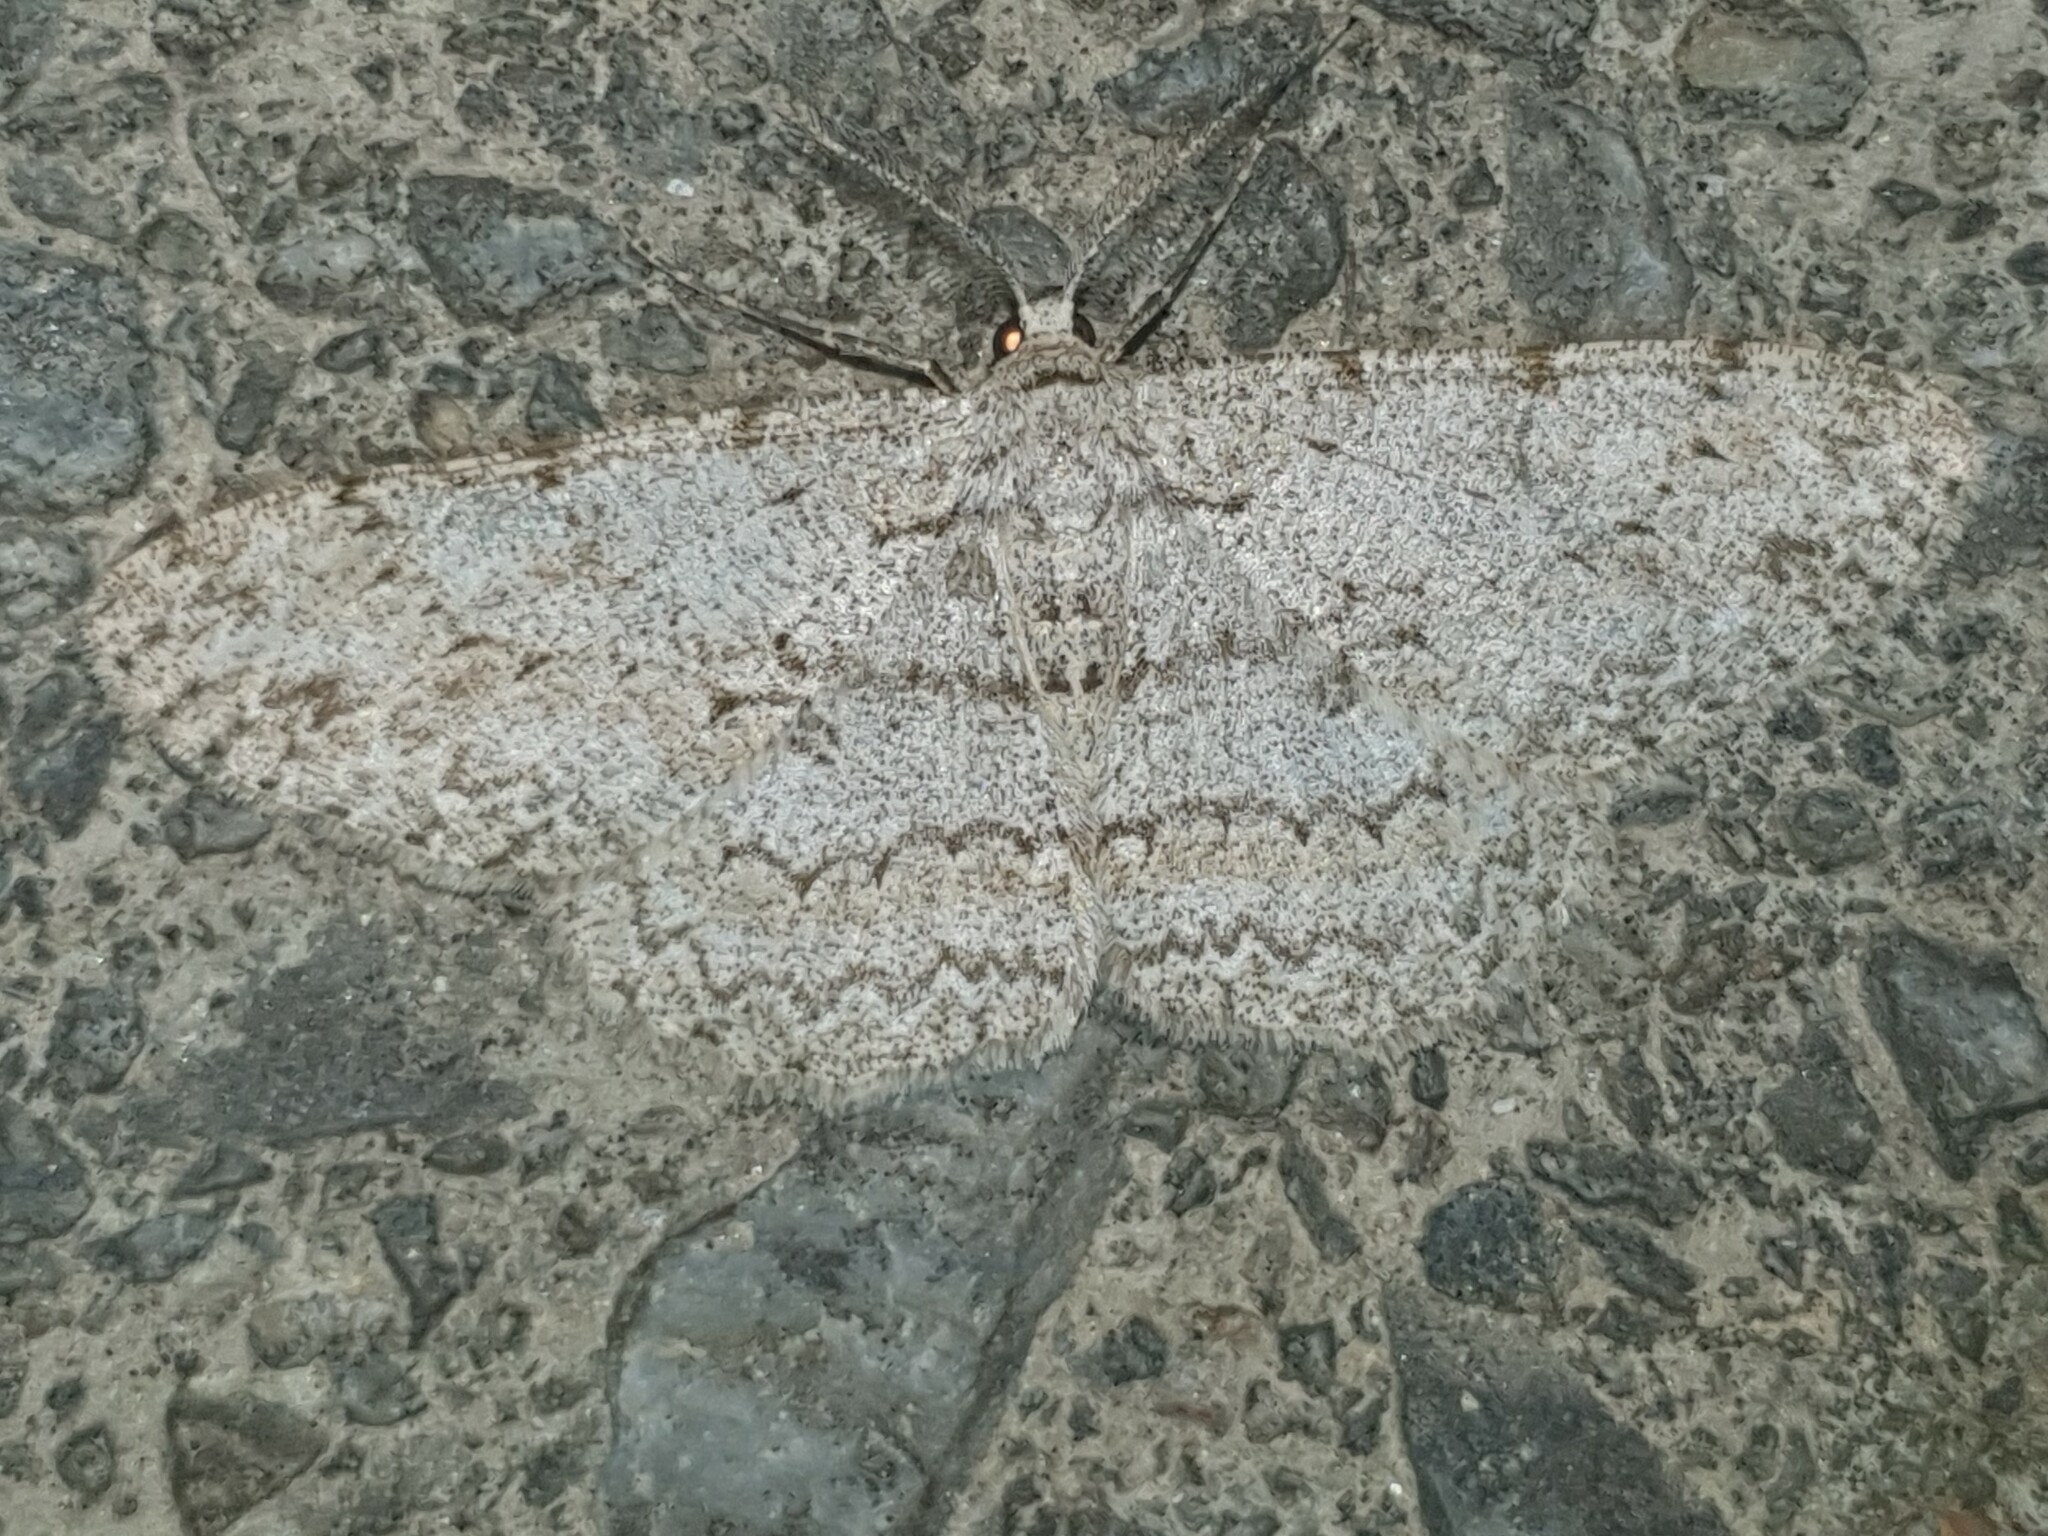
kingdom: Animalia
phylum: Arthropoda
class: Insecta
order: Lepidoptera
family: Geometridae
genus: Hypomecis
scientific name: Hypomecis punctinalis
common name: Pale oak beauty
